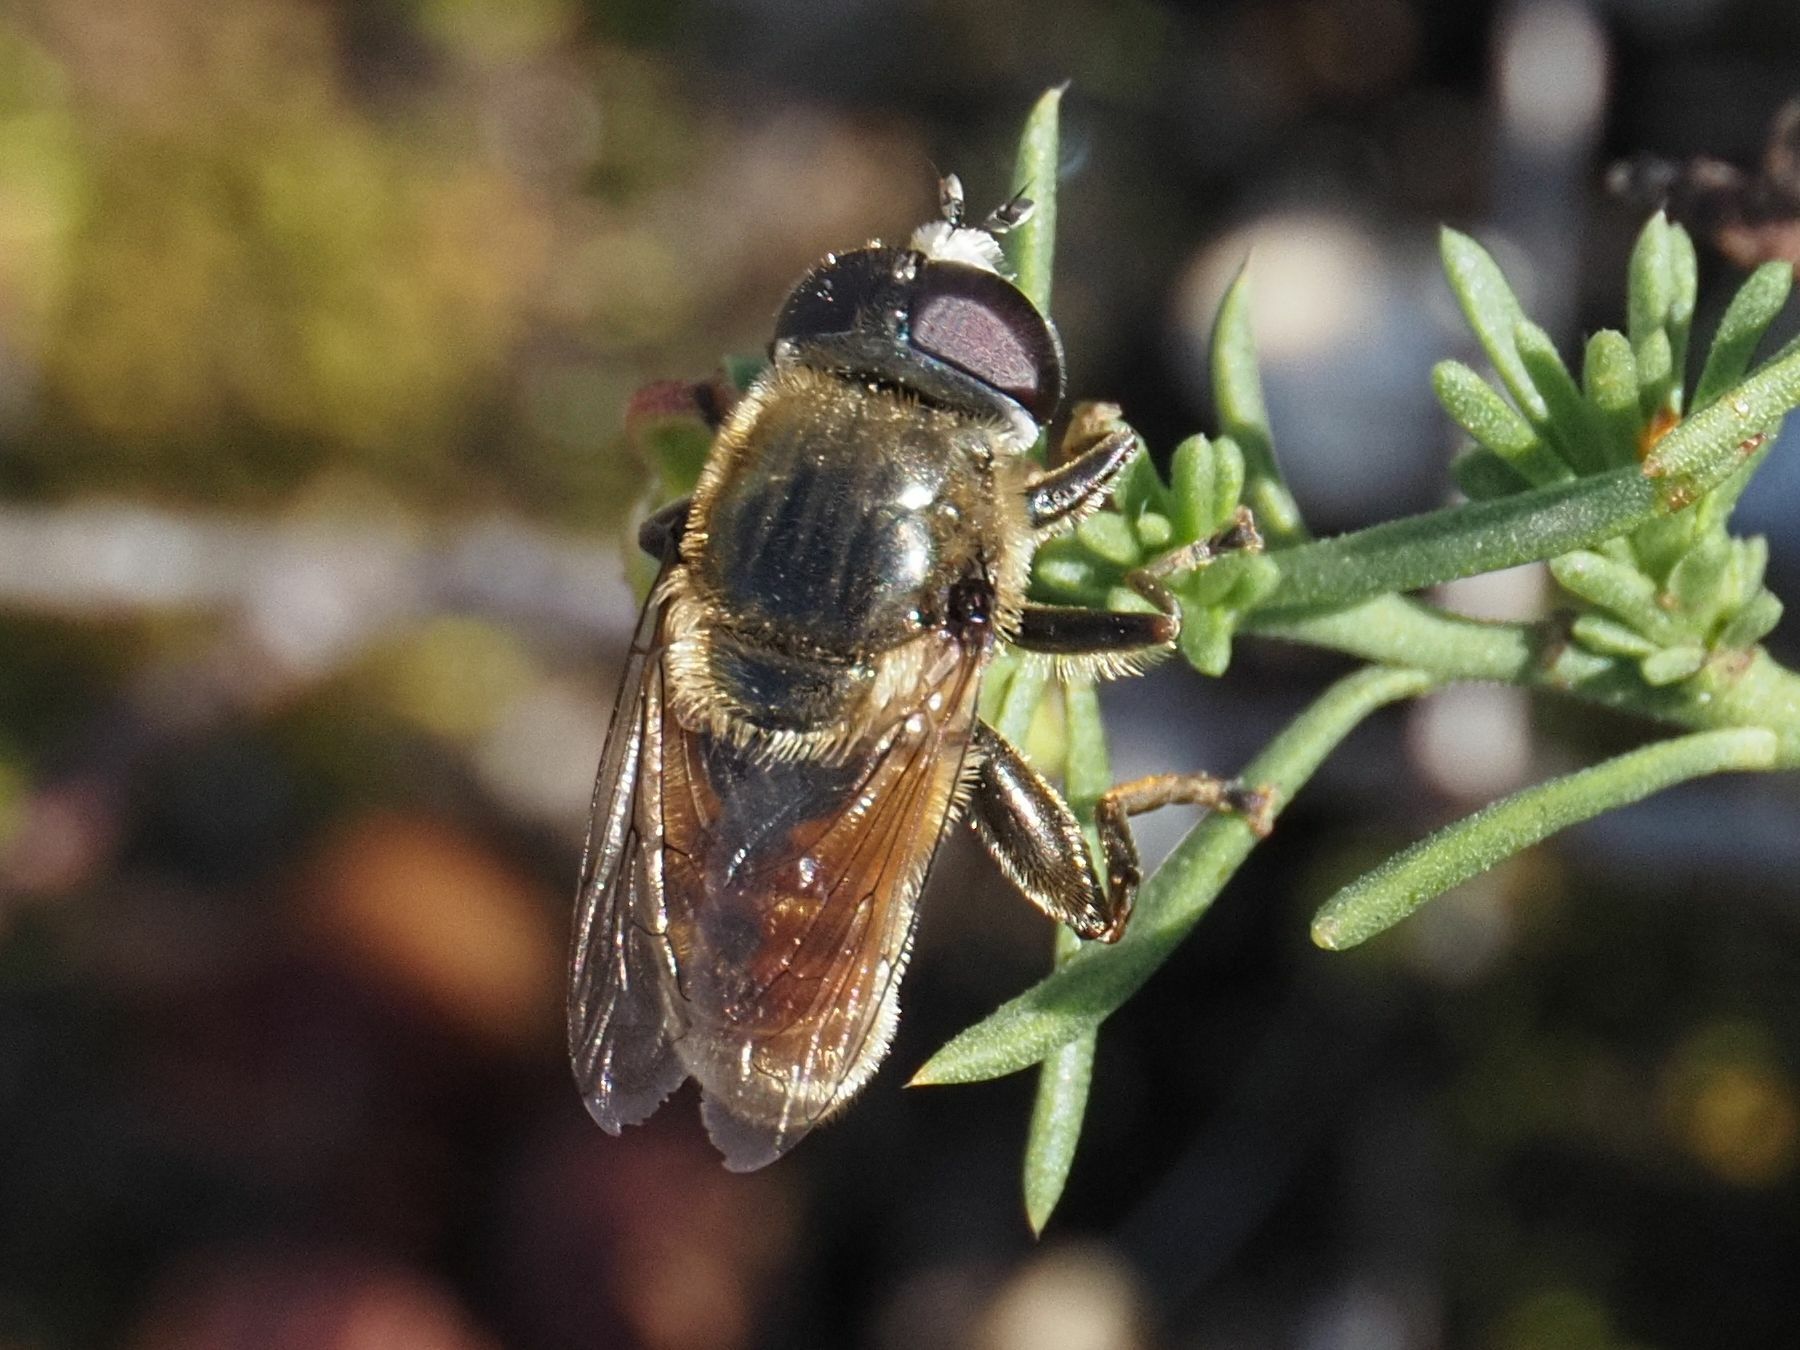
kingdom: Animalia
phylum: Arthropoda
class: Insecta
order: Diptera
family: Syrphidae
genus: Merodon
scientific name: Merodon albifrons
